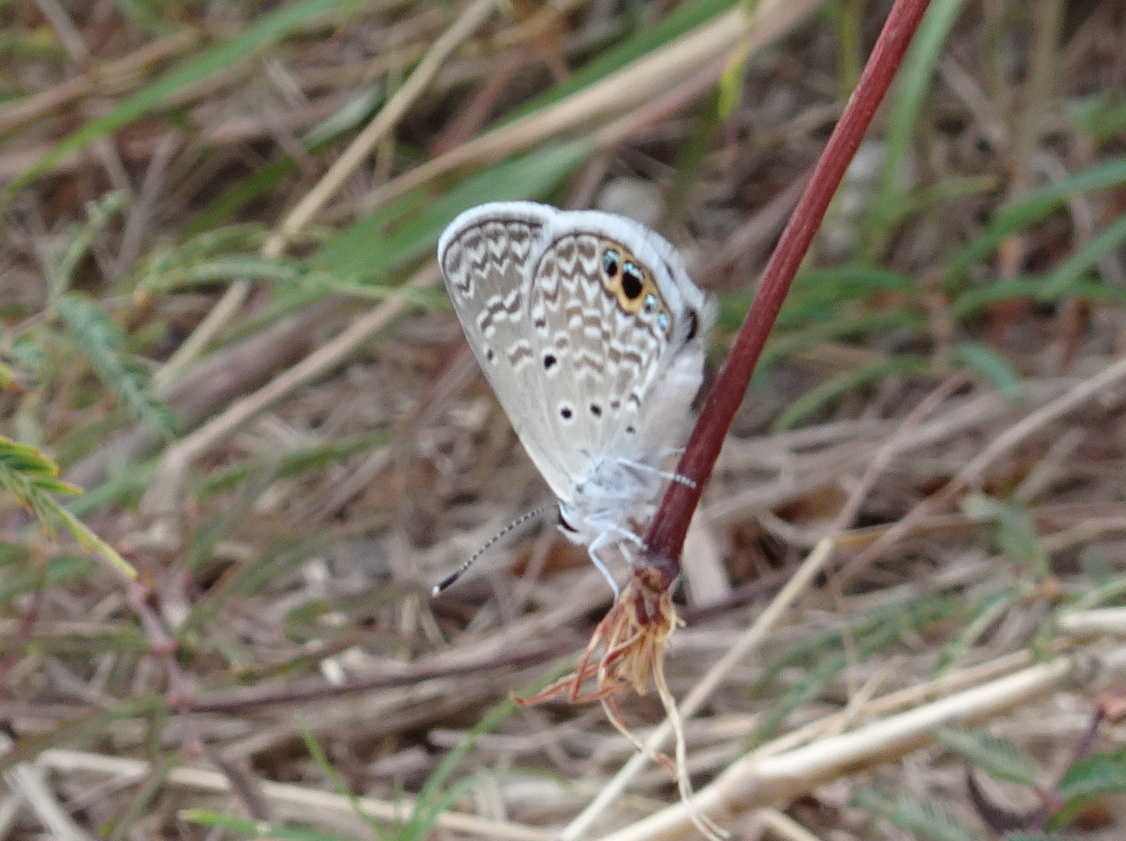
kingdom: Animalia
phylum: Arthropoda
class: Insecta
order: Lepidoptera
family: Lycaenidae
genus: Hemiargus
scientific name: Hemiargus ceraunus
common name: Ceraunus blue
